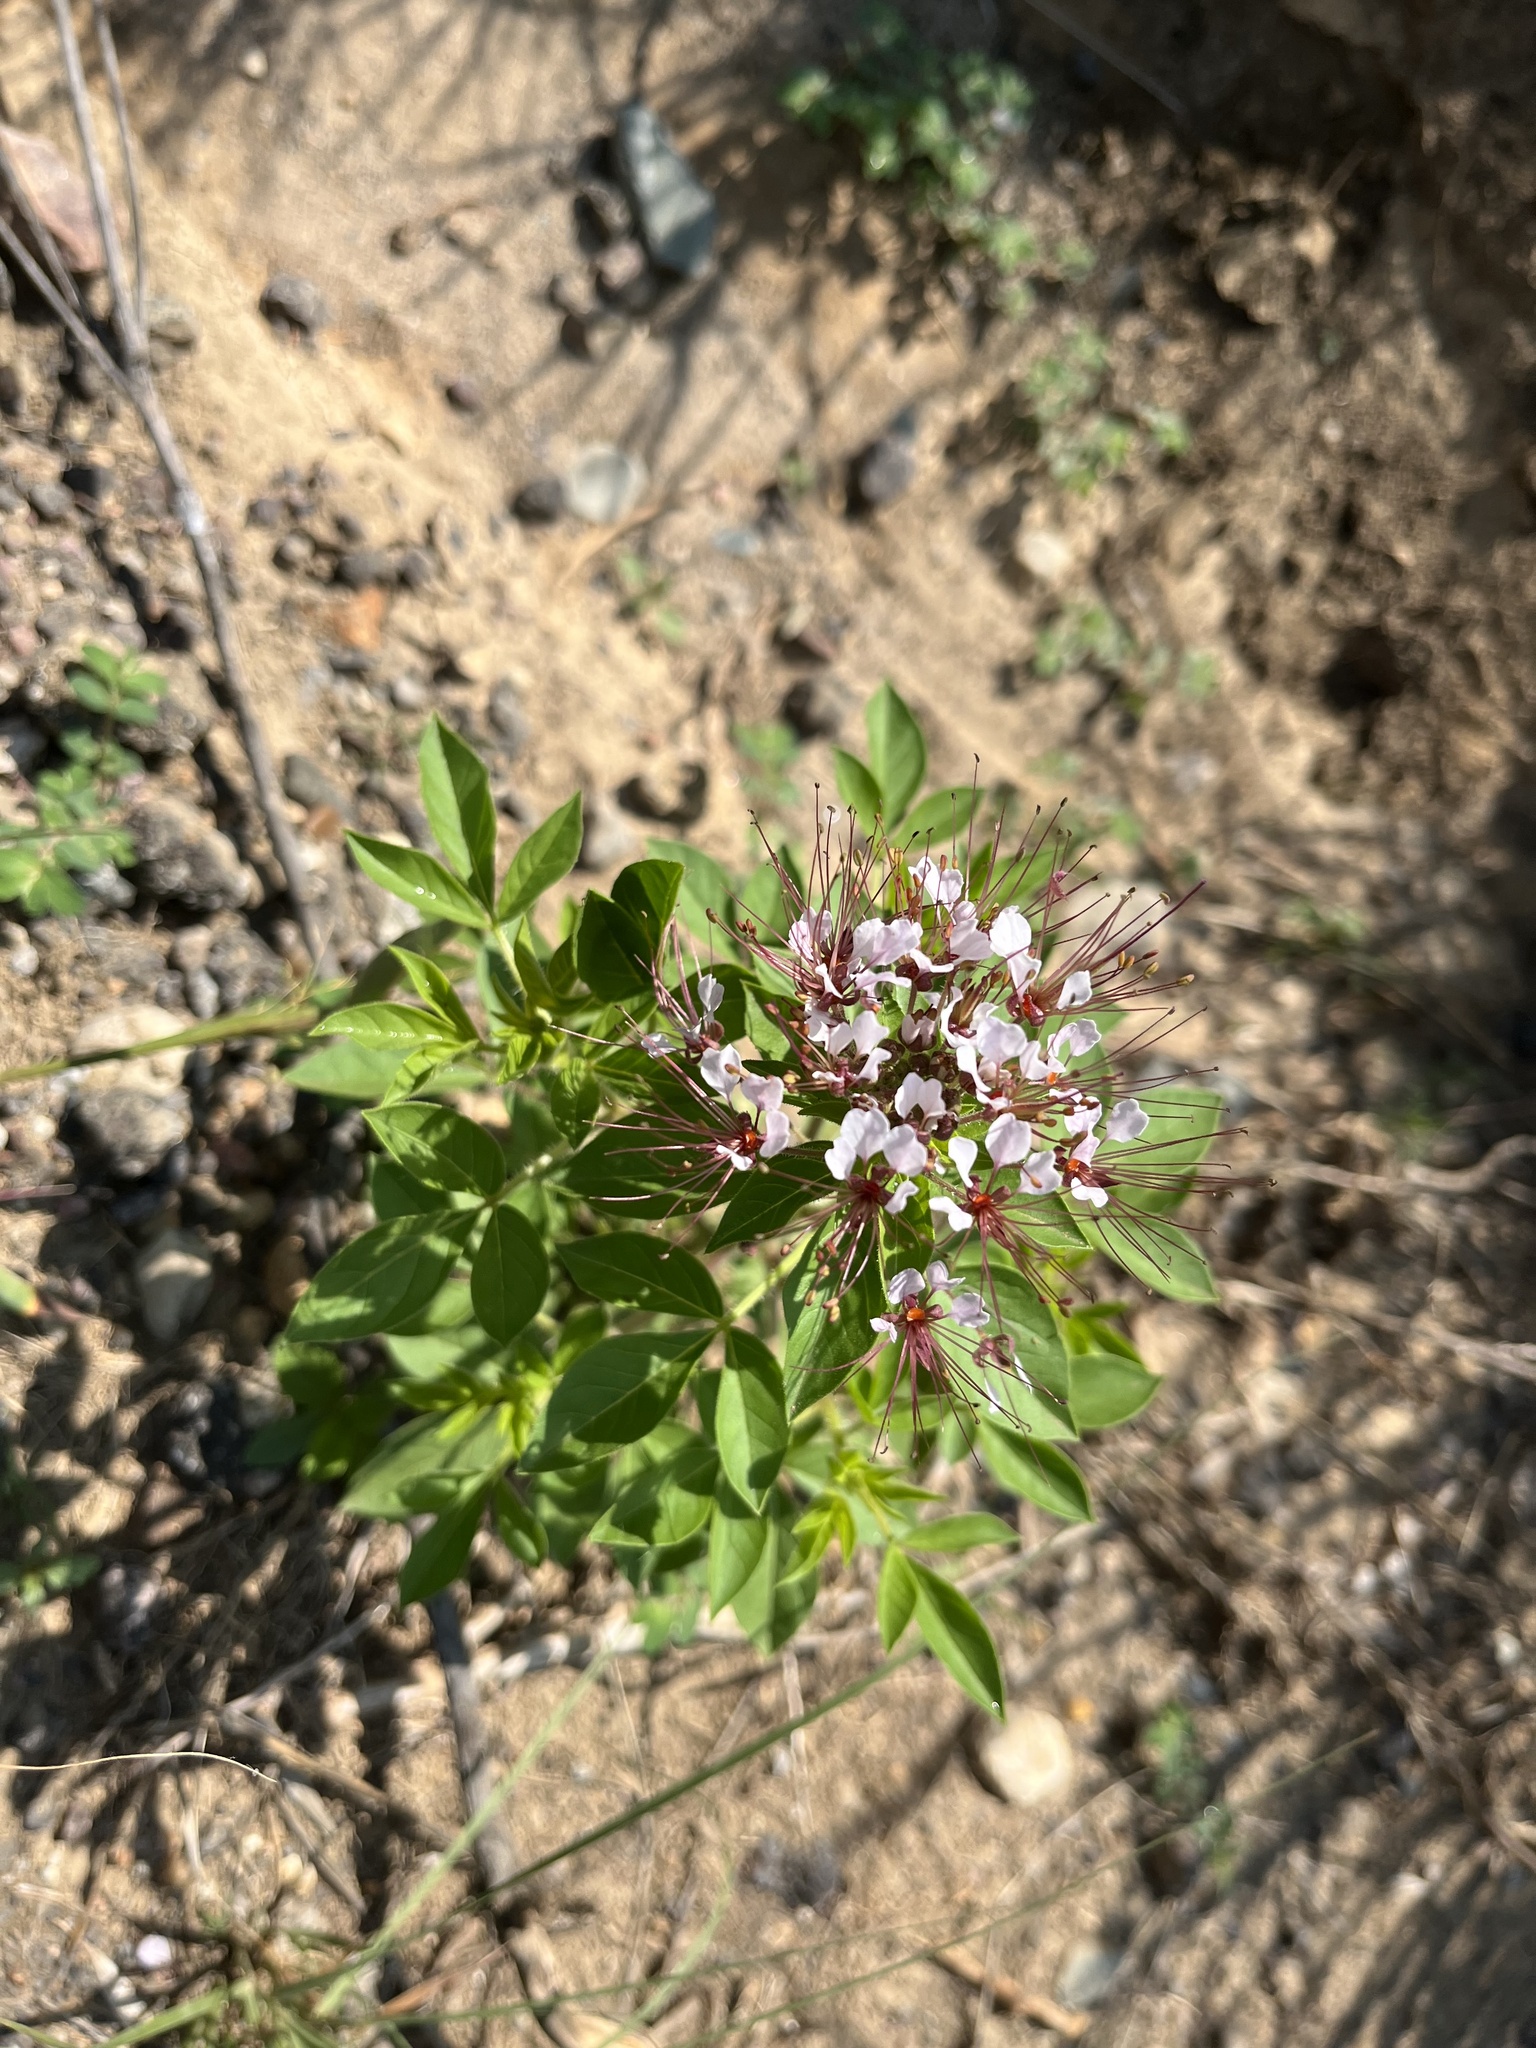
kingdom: Plantae
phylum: Tracheophyta
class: Magnoliopsida
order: Brassicales
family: Cleomaceae
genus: Polanisia
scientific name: Polanisia dodecandra
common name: Clammyweed
